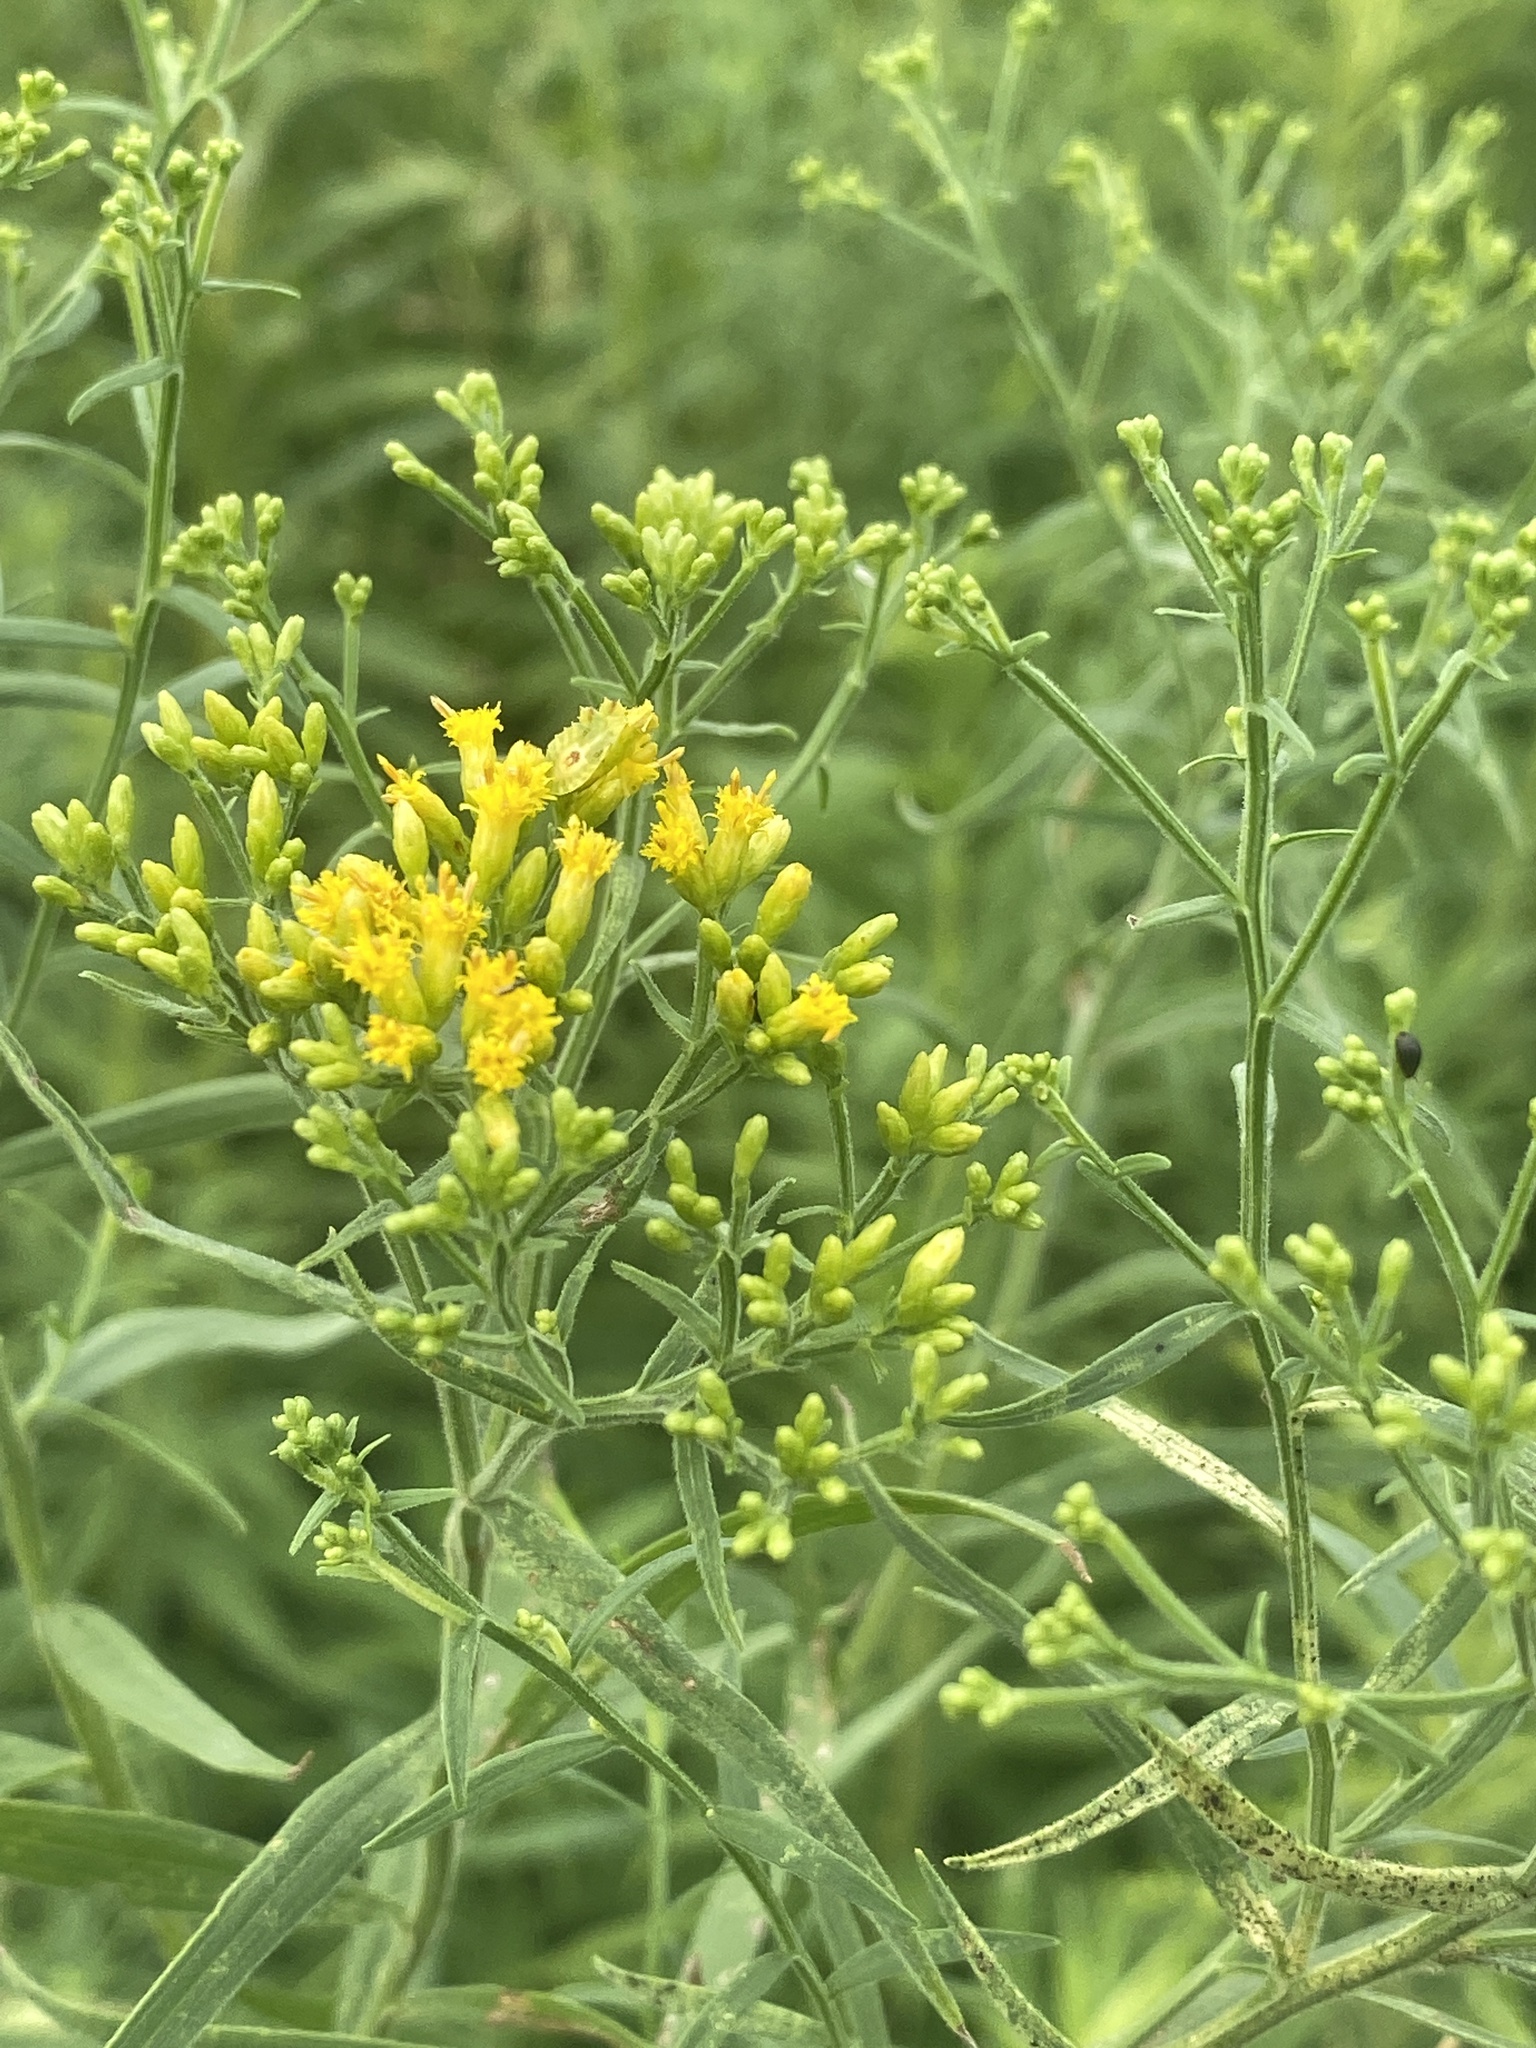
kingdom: Plantae
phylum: Tracheophyta
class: Magnoliopsida
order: Asterales
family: Asteraceae
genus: Euthamia
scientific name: Euthamia graminifolia
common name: Common goldentop
